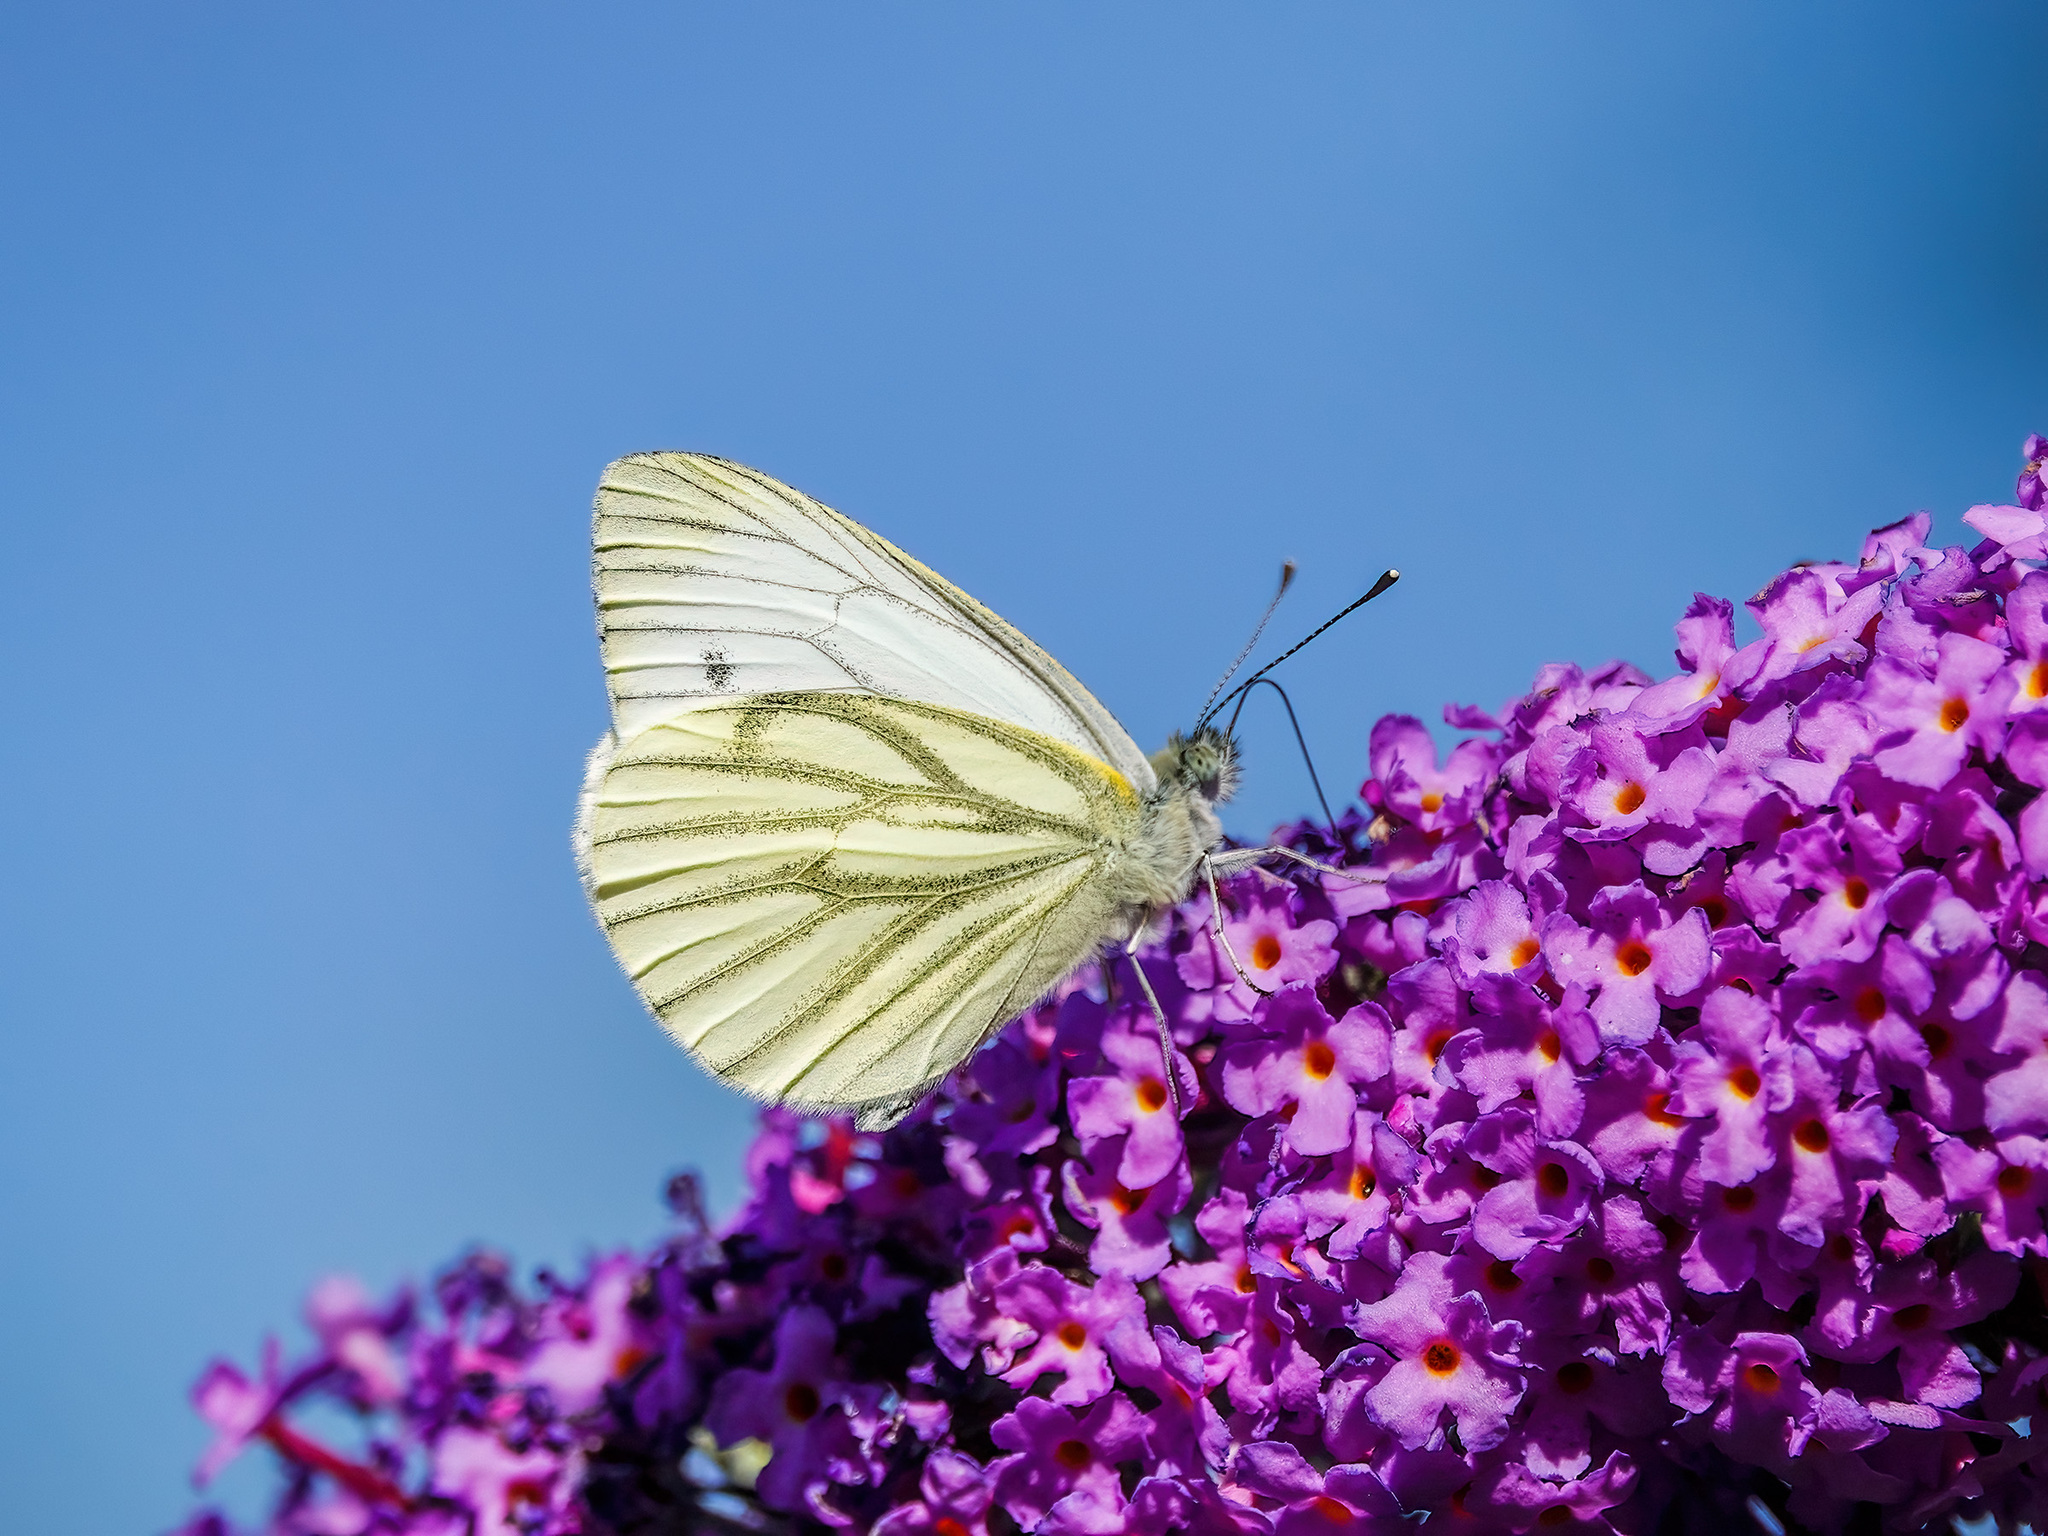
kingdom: Animalia
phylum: Arthropoda
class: Insecta
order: Lepidoptera
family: Pieridae
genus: Pieris
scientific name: Pieris napi
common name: Green-veined white
